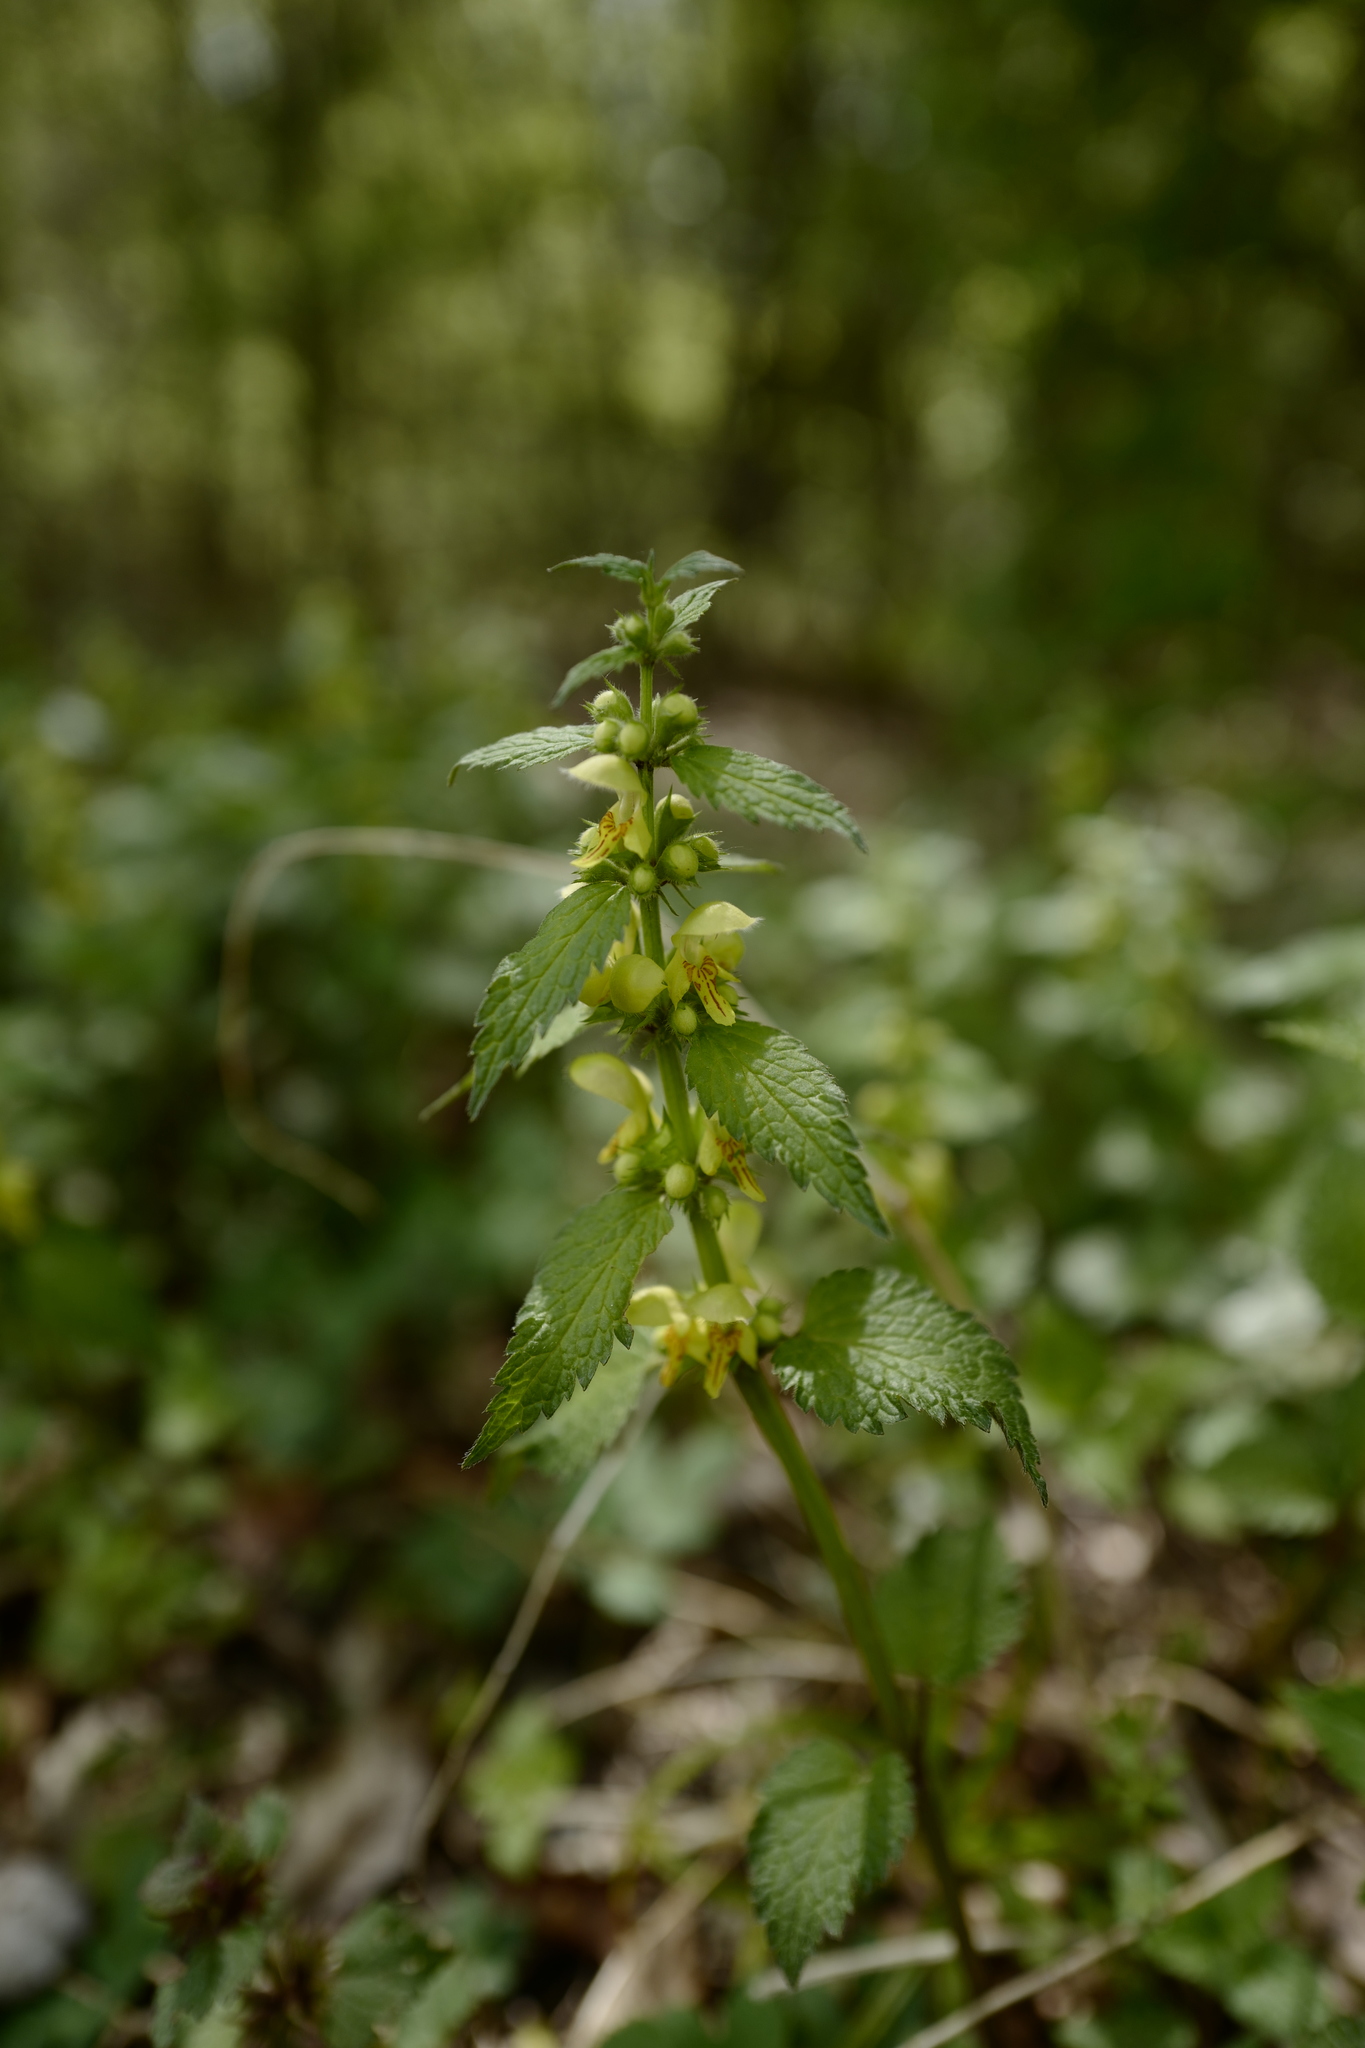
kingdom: Plantae
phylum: Tracheophyta
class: Magnoliopsida
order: Lamiales
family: Lamiaceae
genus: Lamium
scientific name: Lamium galeobdolon
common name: Yellow archangel
